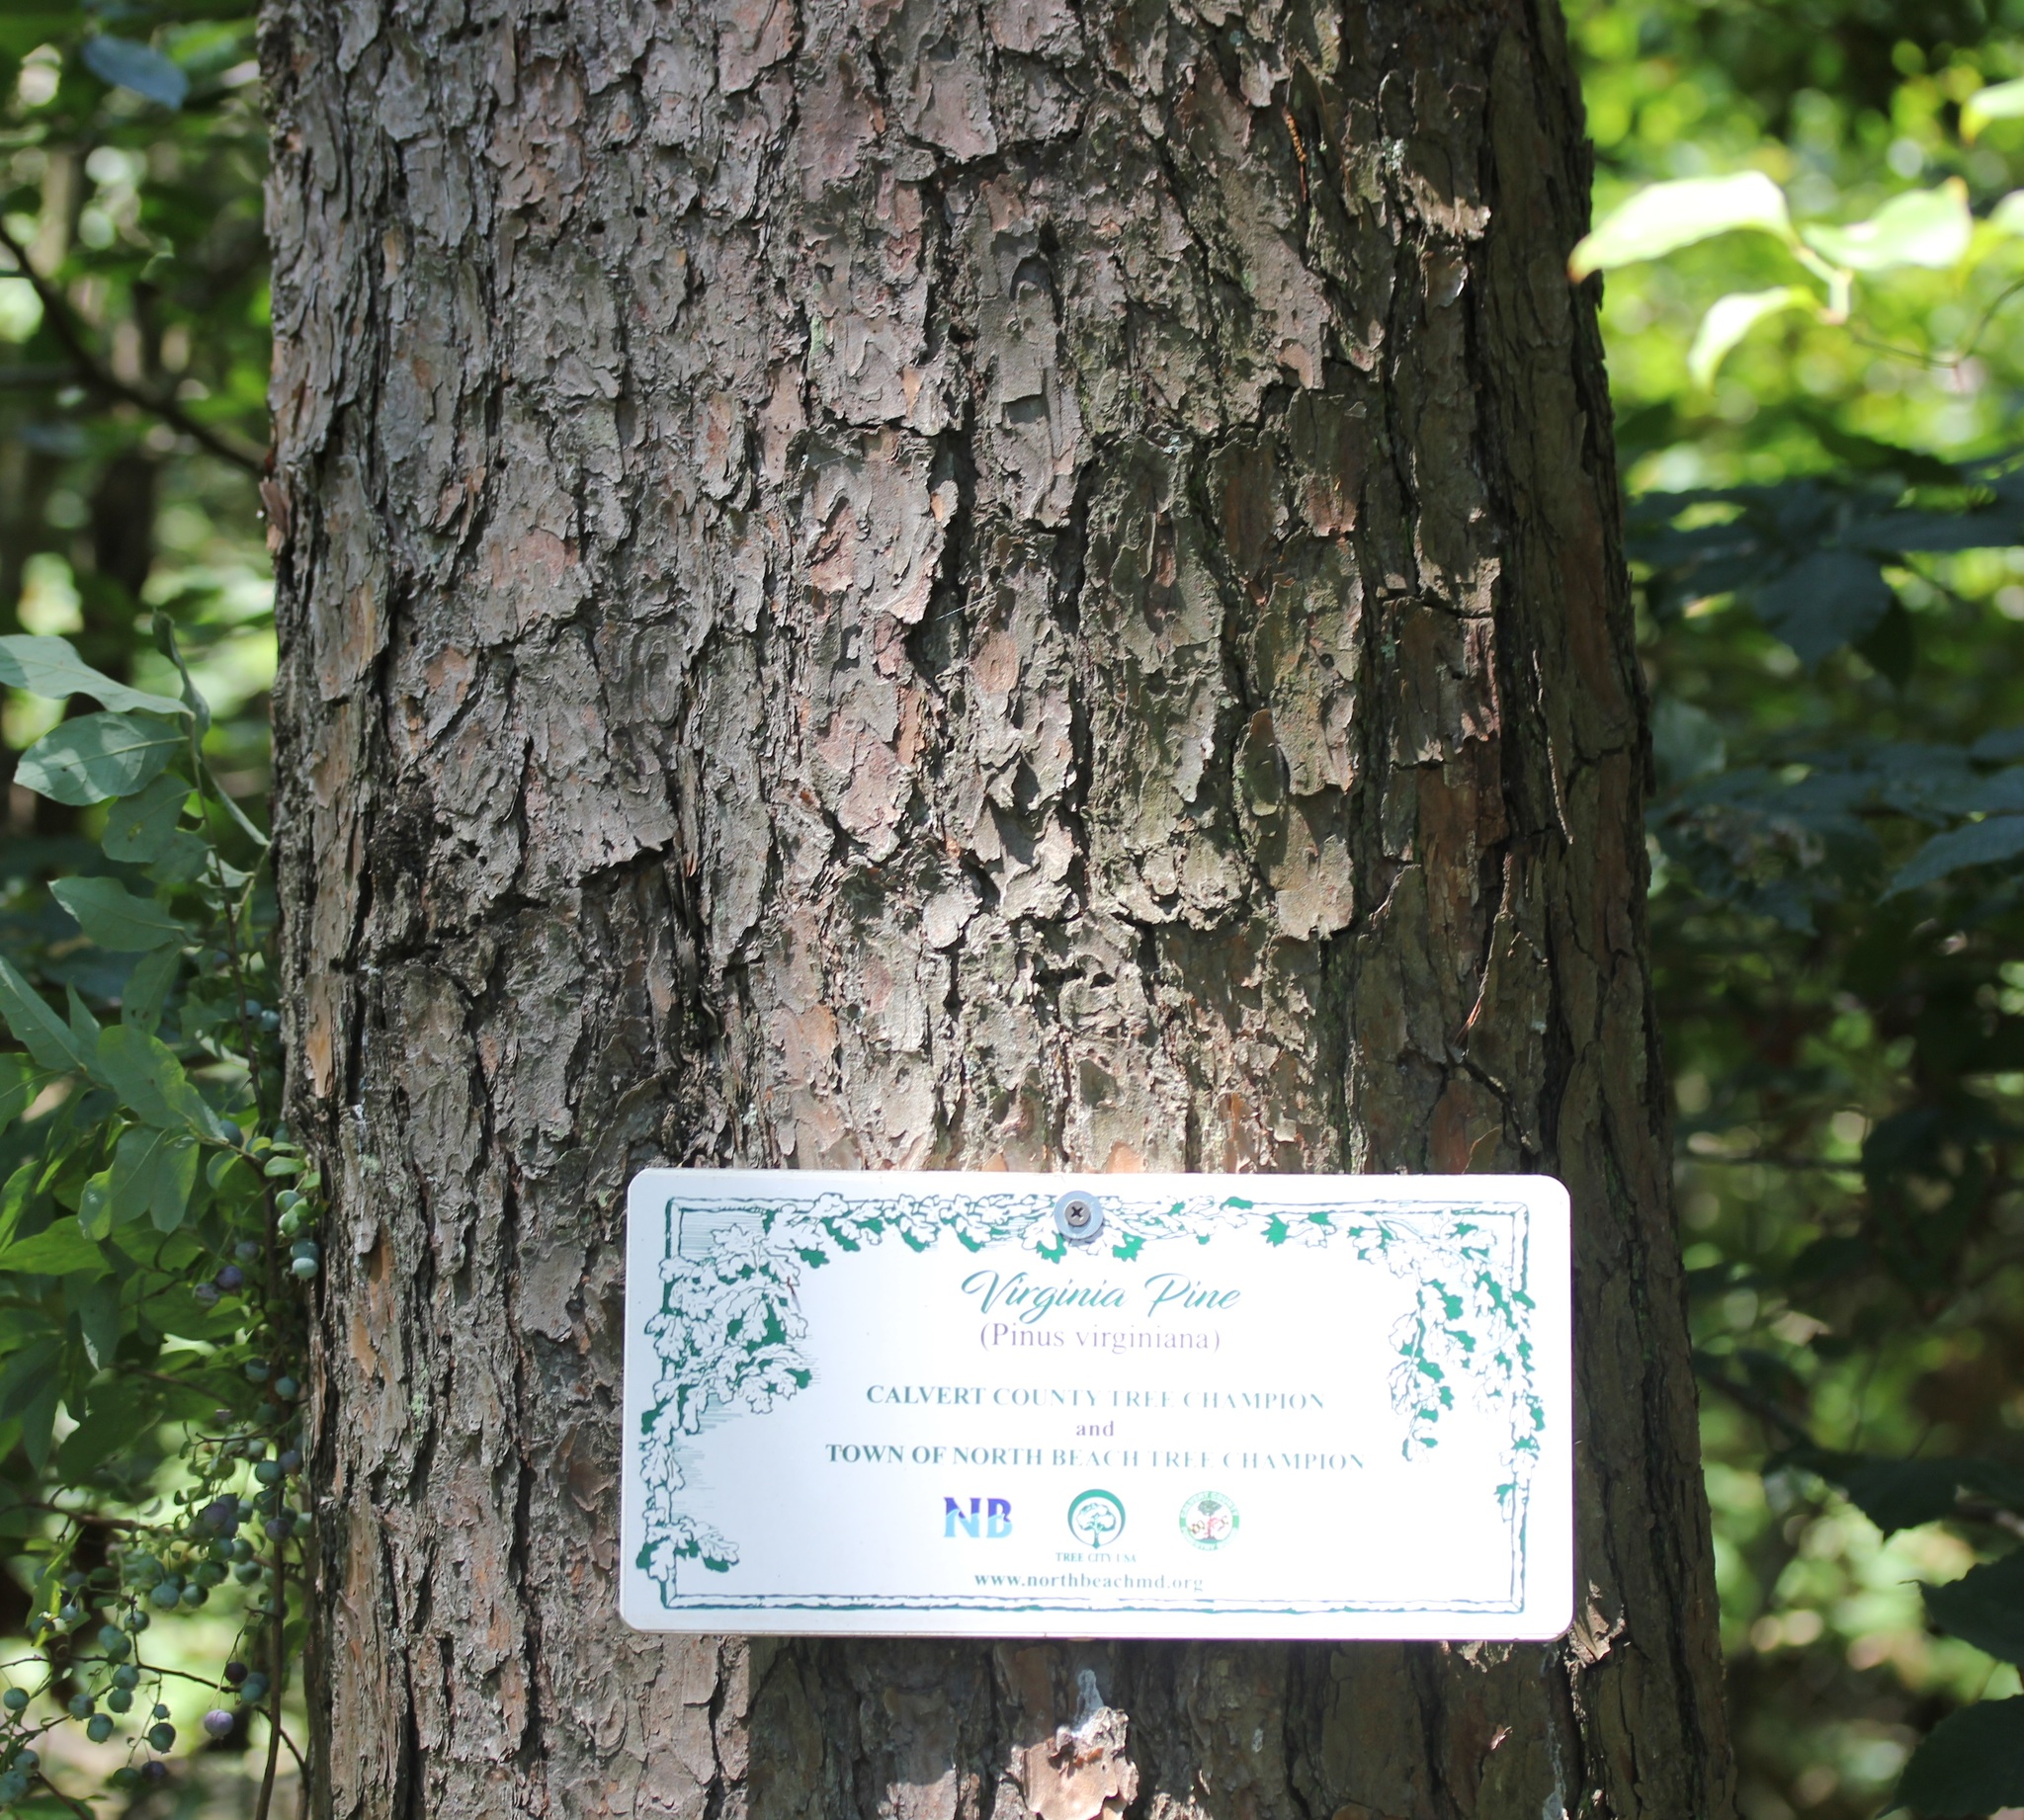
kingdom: Plantae
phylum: Tracheophyta
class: Pinopsida
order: Pinales
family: Pinaceae
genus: Pinus
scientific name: Pinus virginiana
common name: Scrub pine
